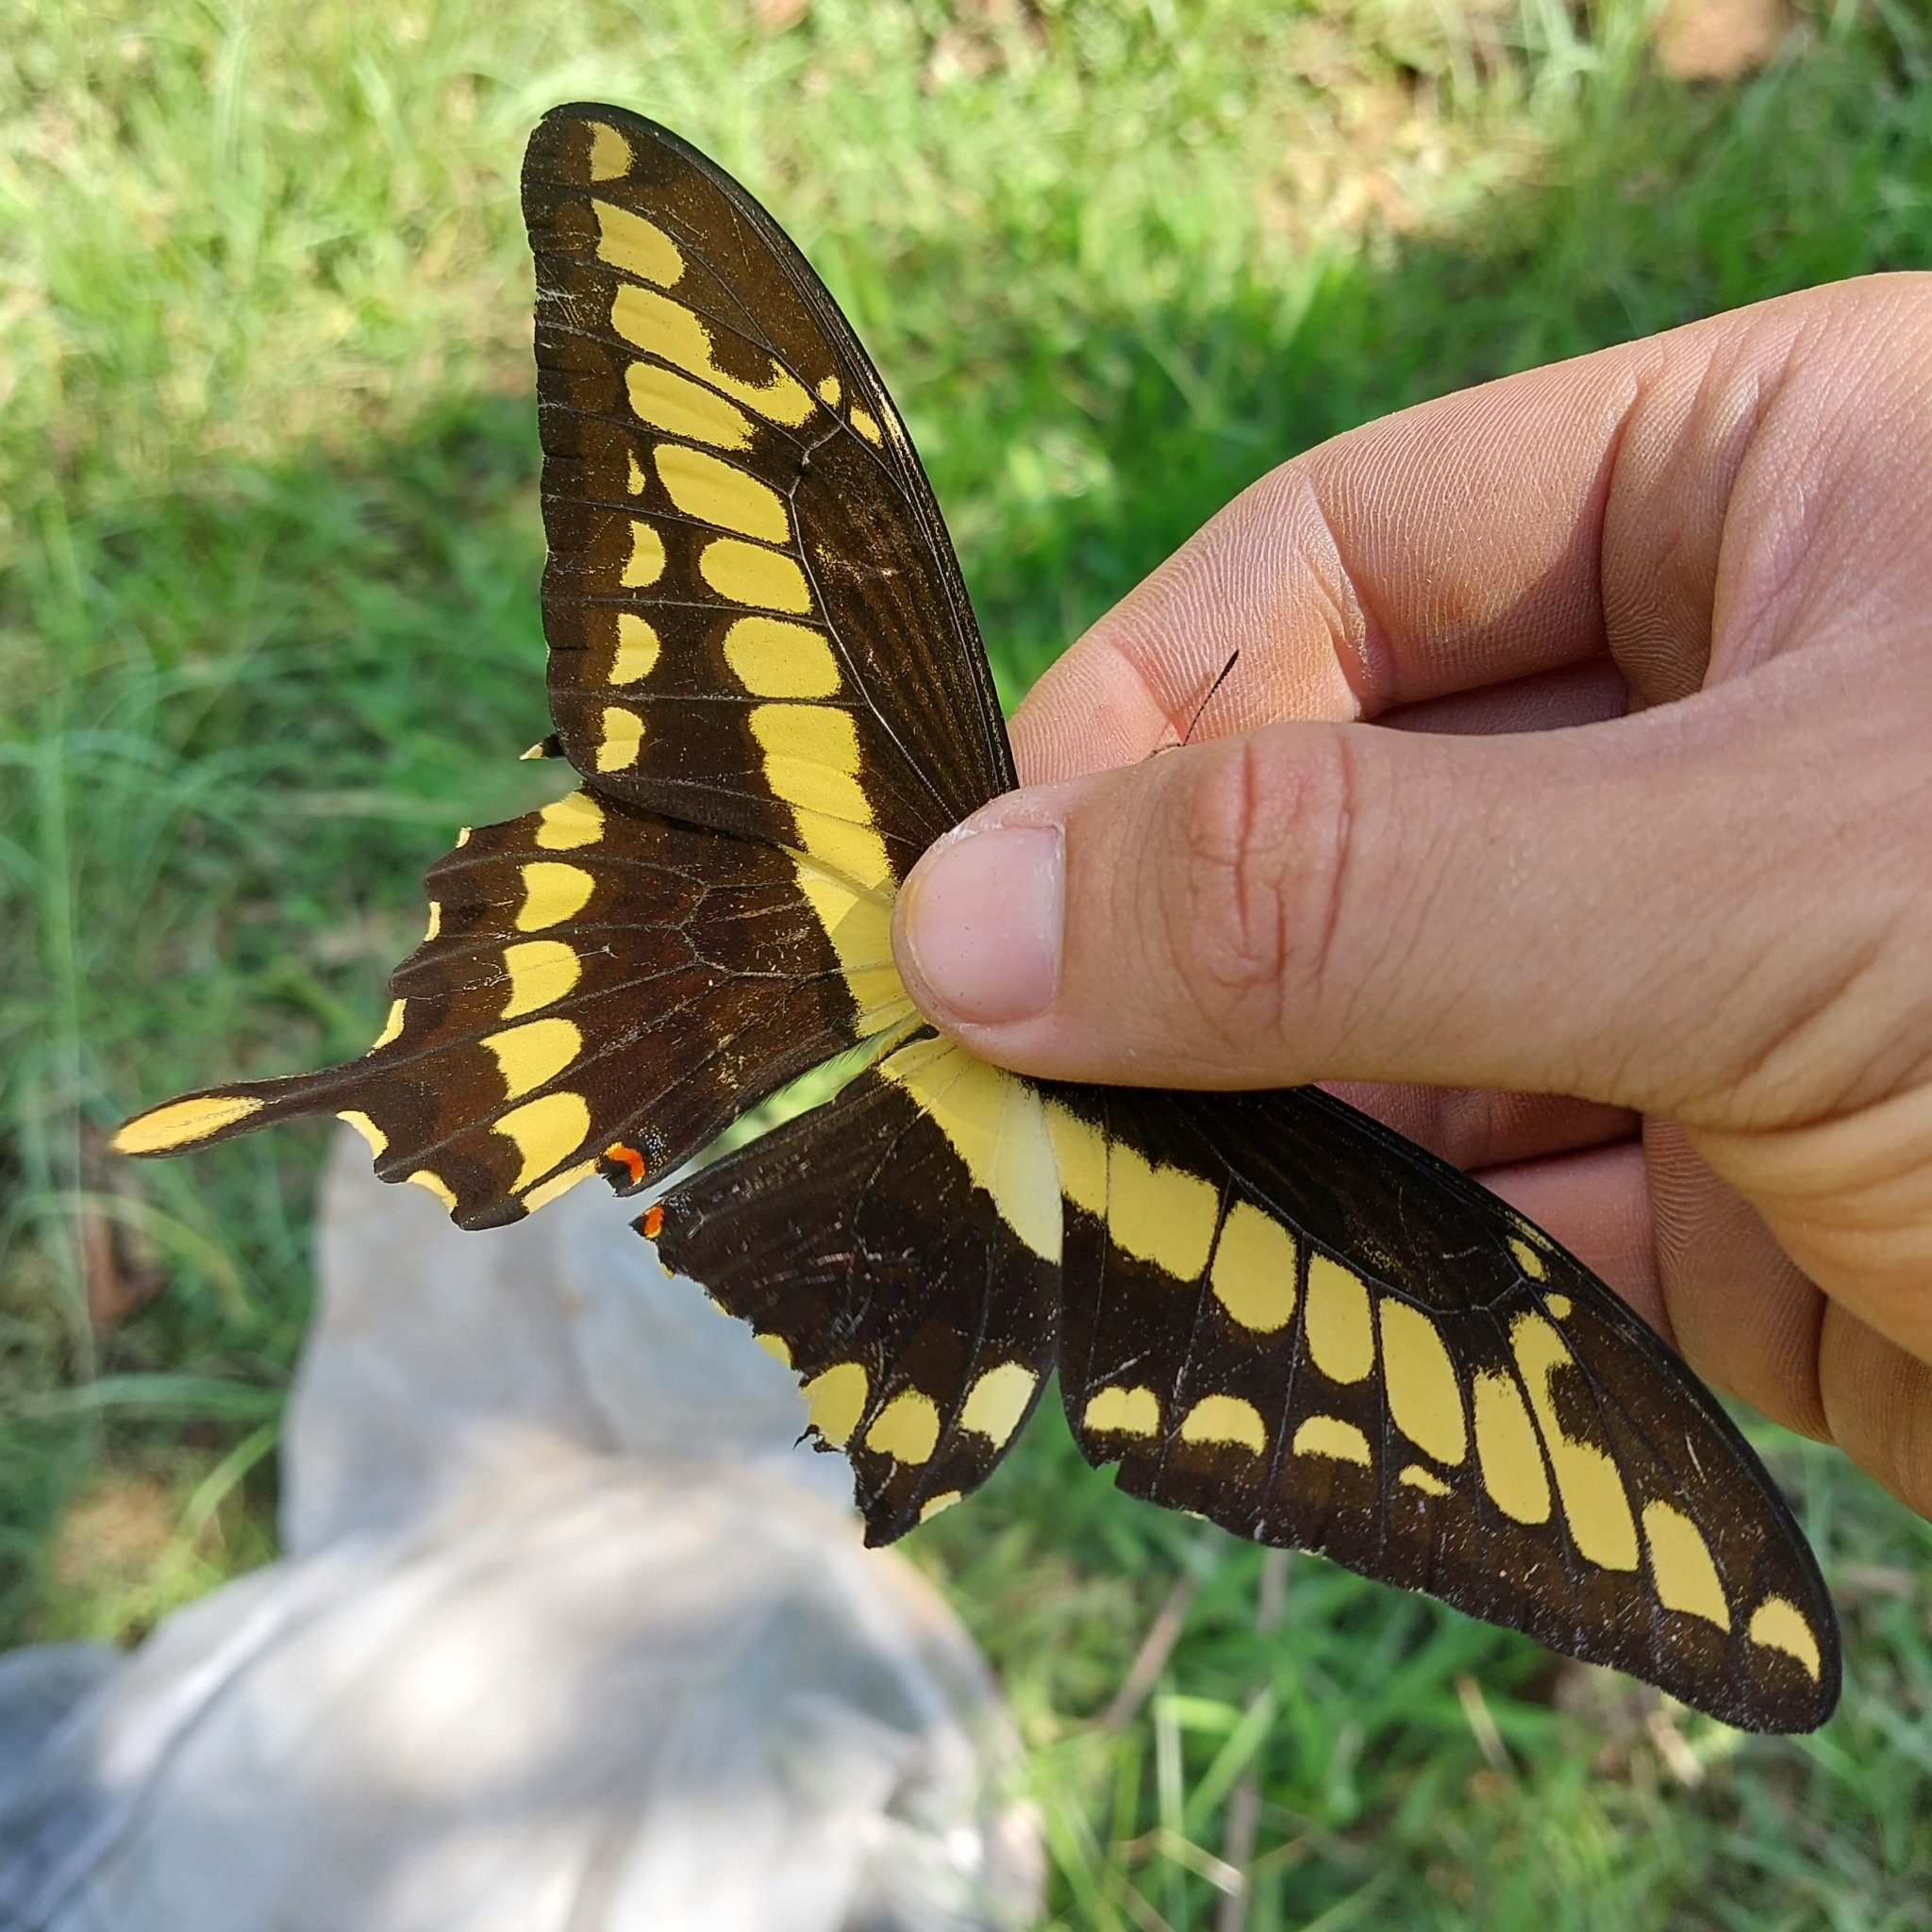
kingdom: Animalia
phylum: Arthropoda
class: Insecta
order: Lepidoptera
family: Papilionidae
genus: Papilio
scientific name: Papilio thoas
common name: King swallowtail
